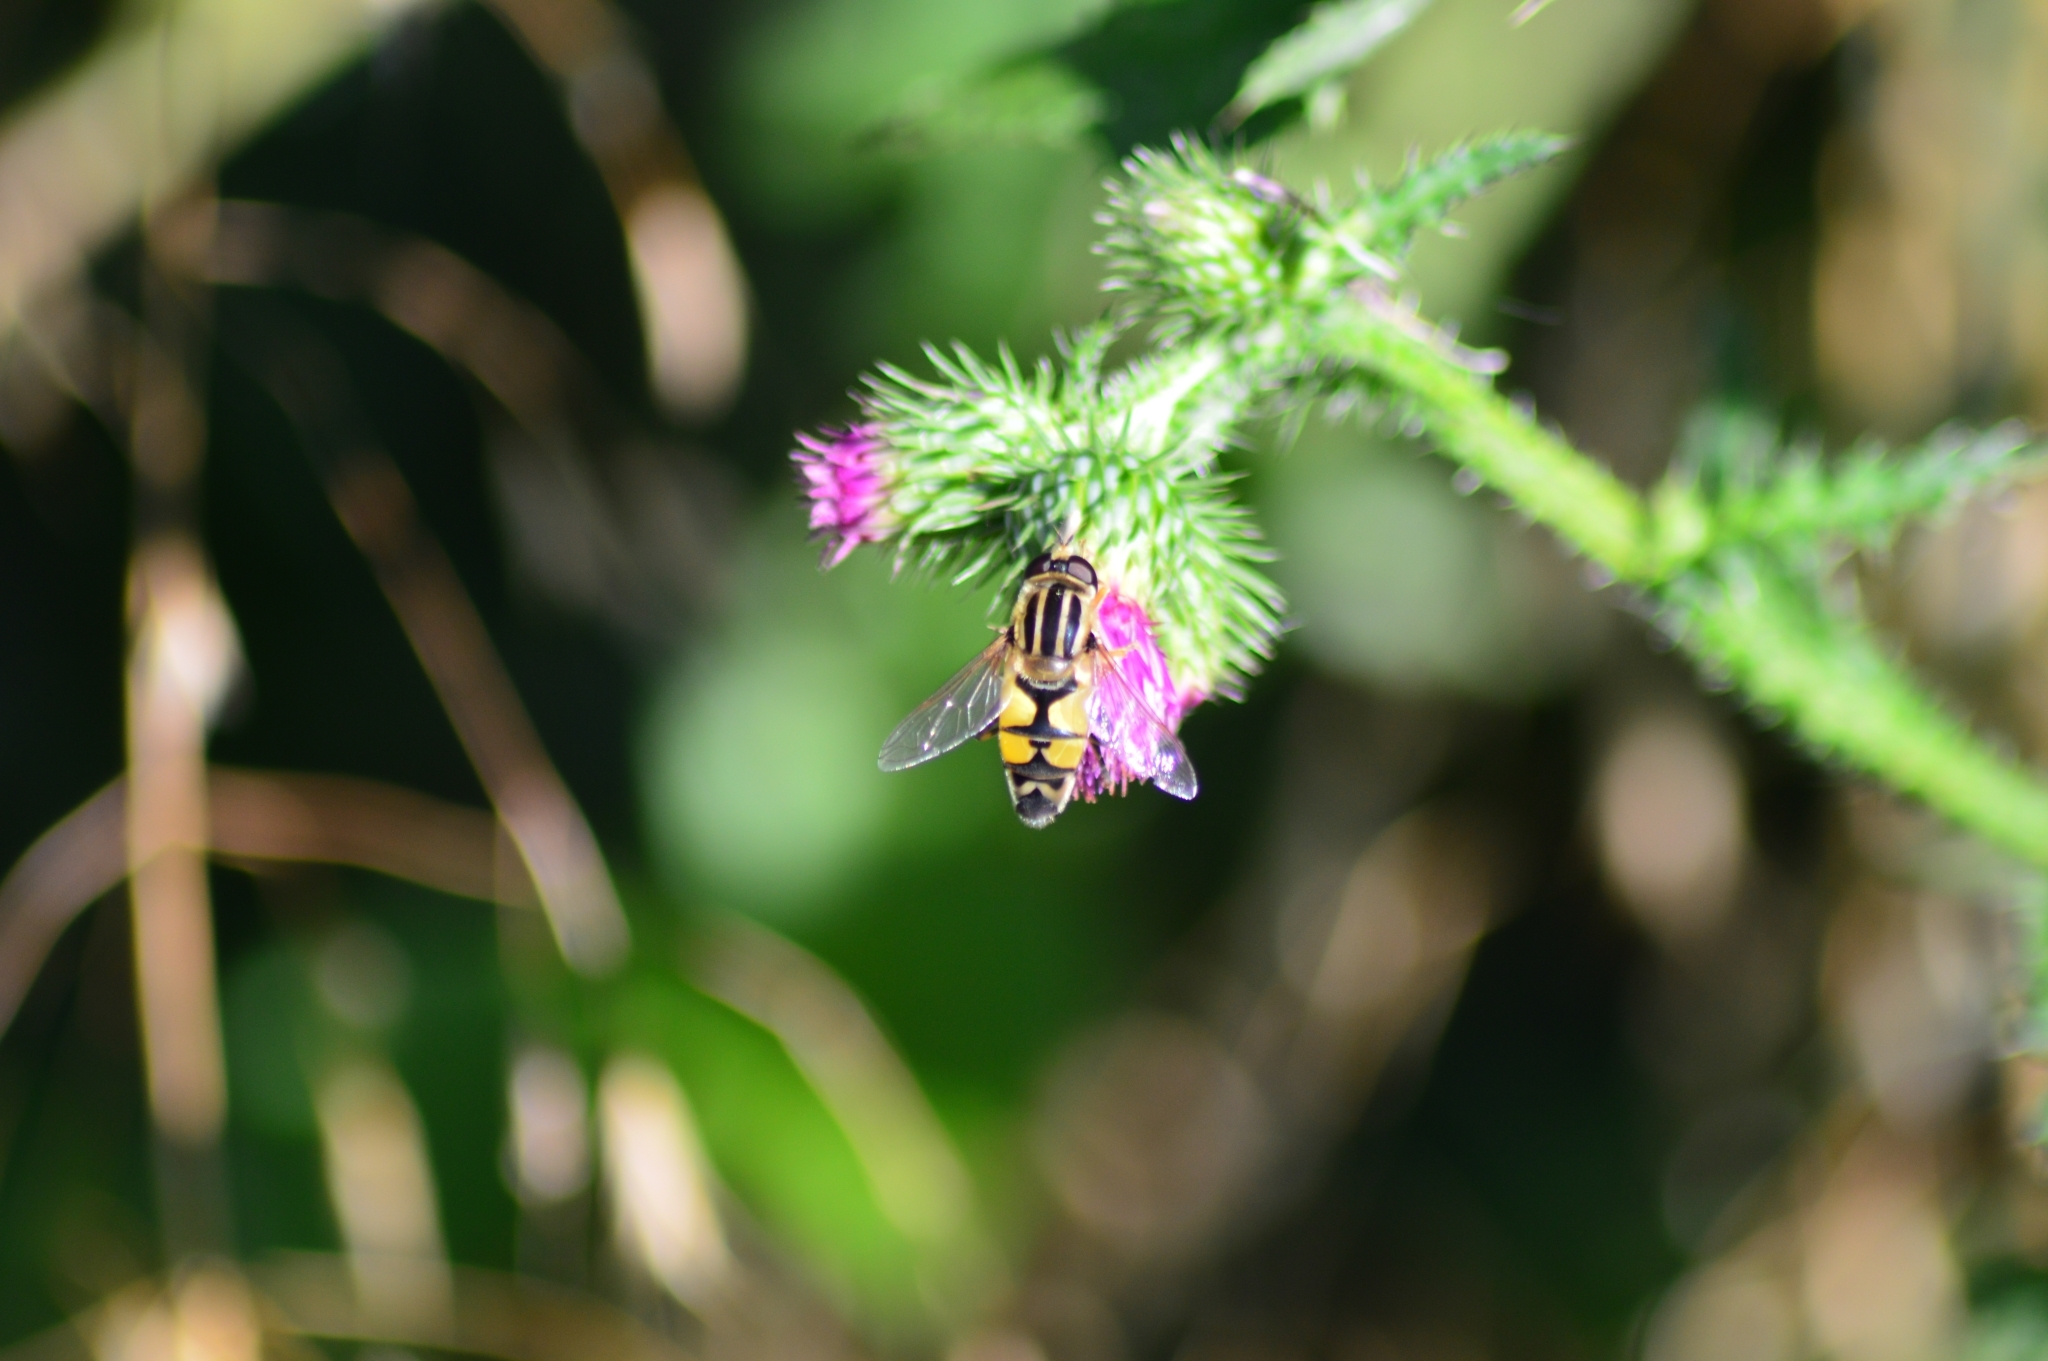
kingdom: Animalia
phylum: Arthropoda
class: Insecta
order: Diptera
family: Syrphidae
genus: Helophilus
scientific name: Helophilus trivittatus
